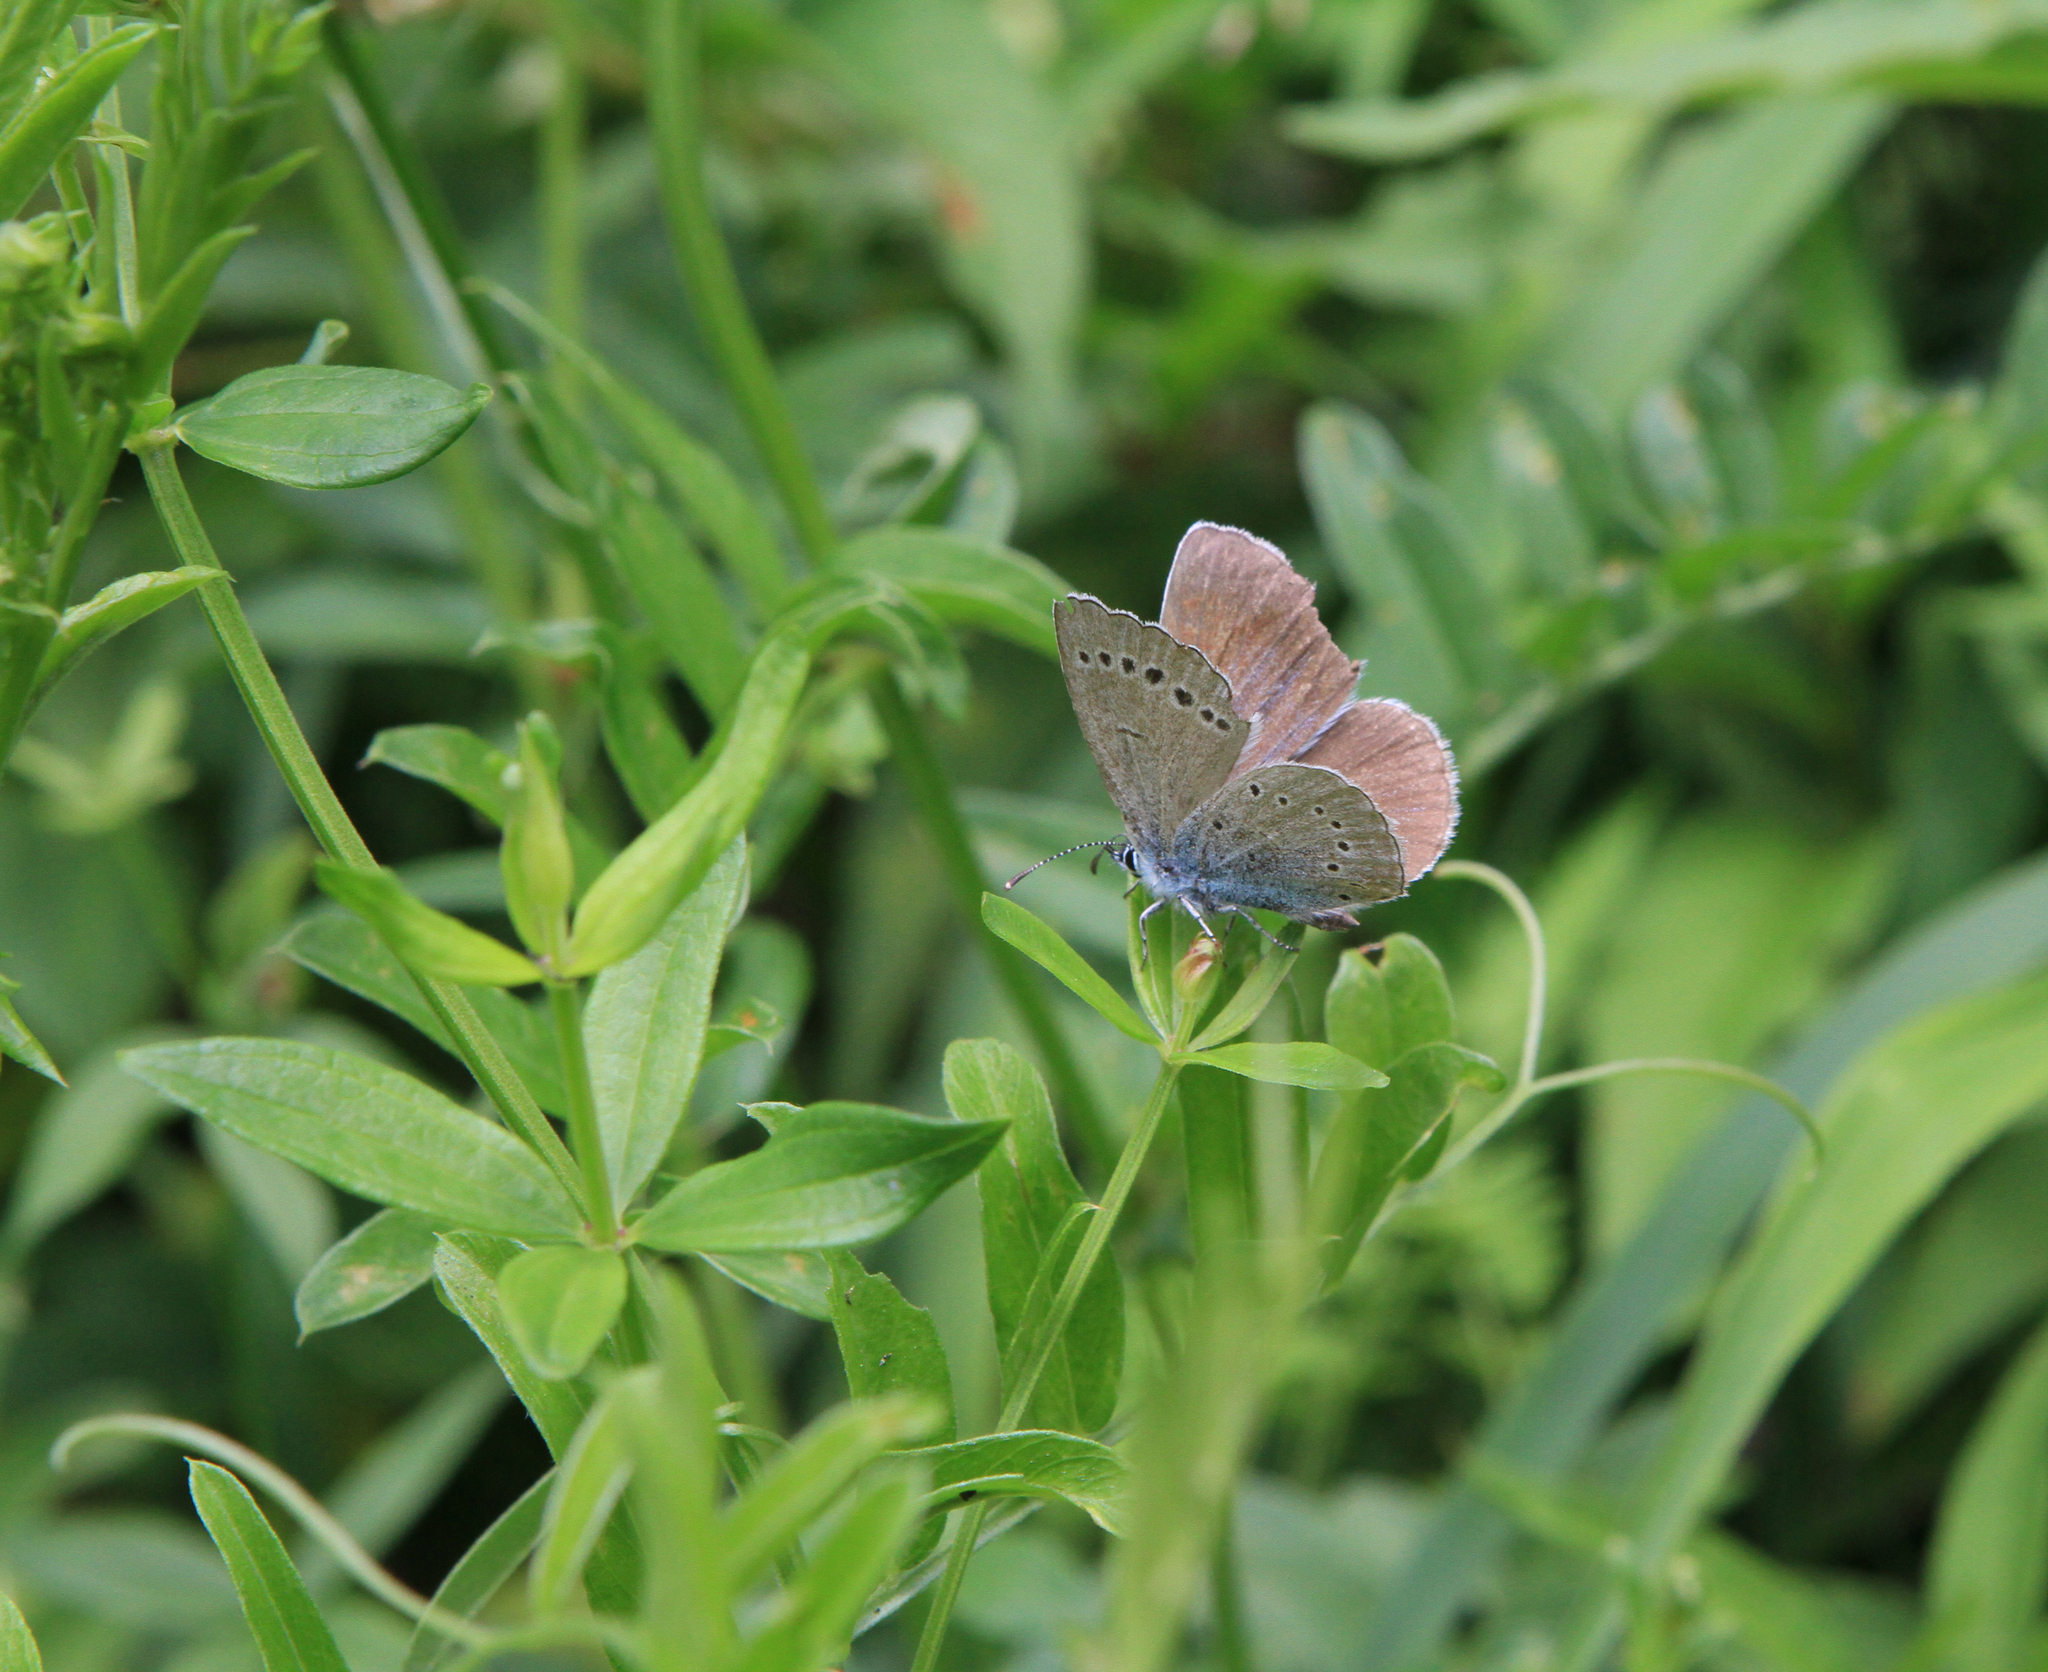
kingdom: Animalia
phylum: Arthropoda
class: Insecta
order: Lepidoptera
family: Lycaenidae
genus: Glaucopsyche
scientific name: Glaucopsyche lycormas
